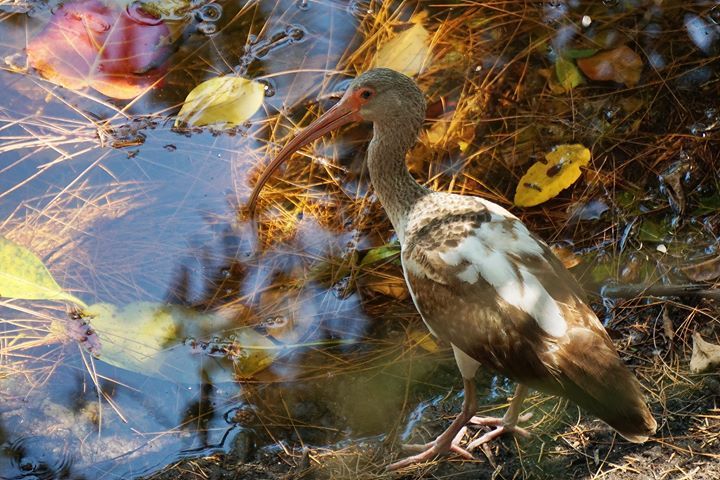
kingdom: Animalia
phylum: Chordata
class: Aves
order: Pelecaniformes
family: Threskiornithidae
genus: Eudocimus
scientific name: Eudocimus albus
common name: White ibis
